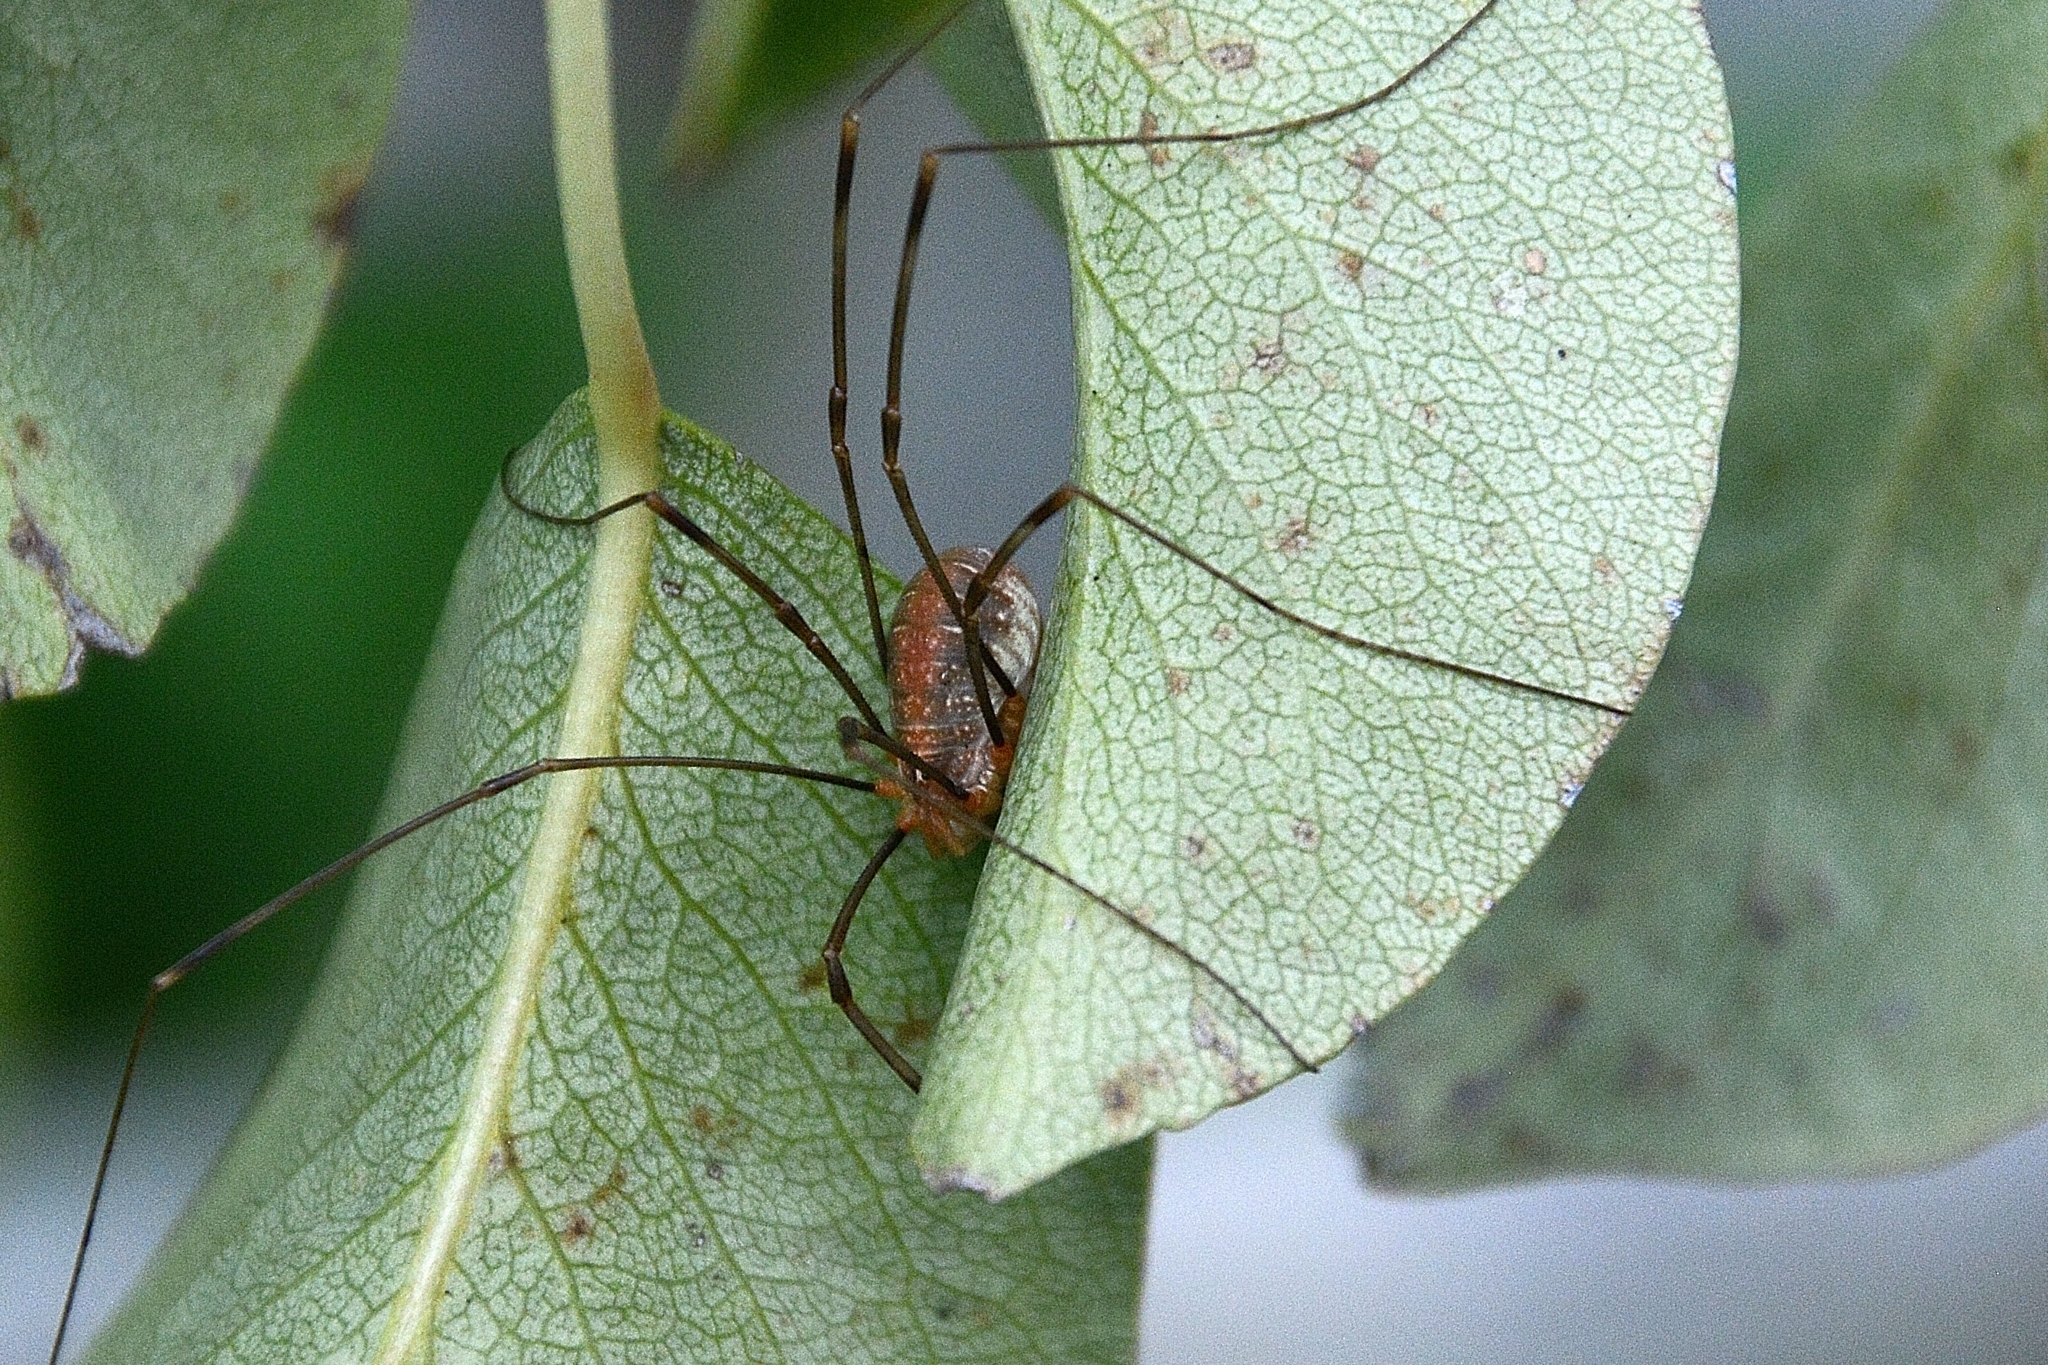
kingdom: Animalia
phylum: Arthropoda
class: Arachnida
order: Opiliones
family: Phalangiidae
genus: Opilio
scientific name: Opilio canestrinii
